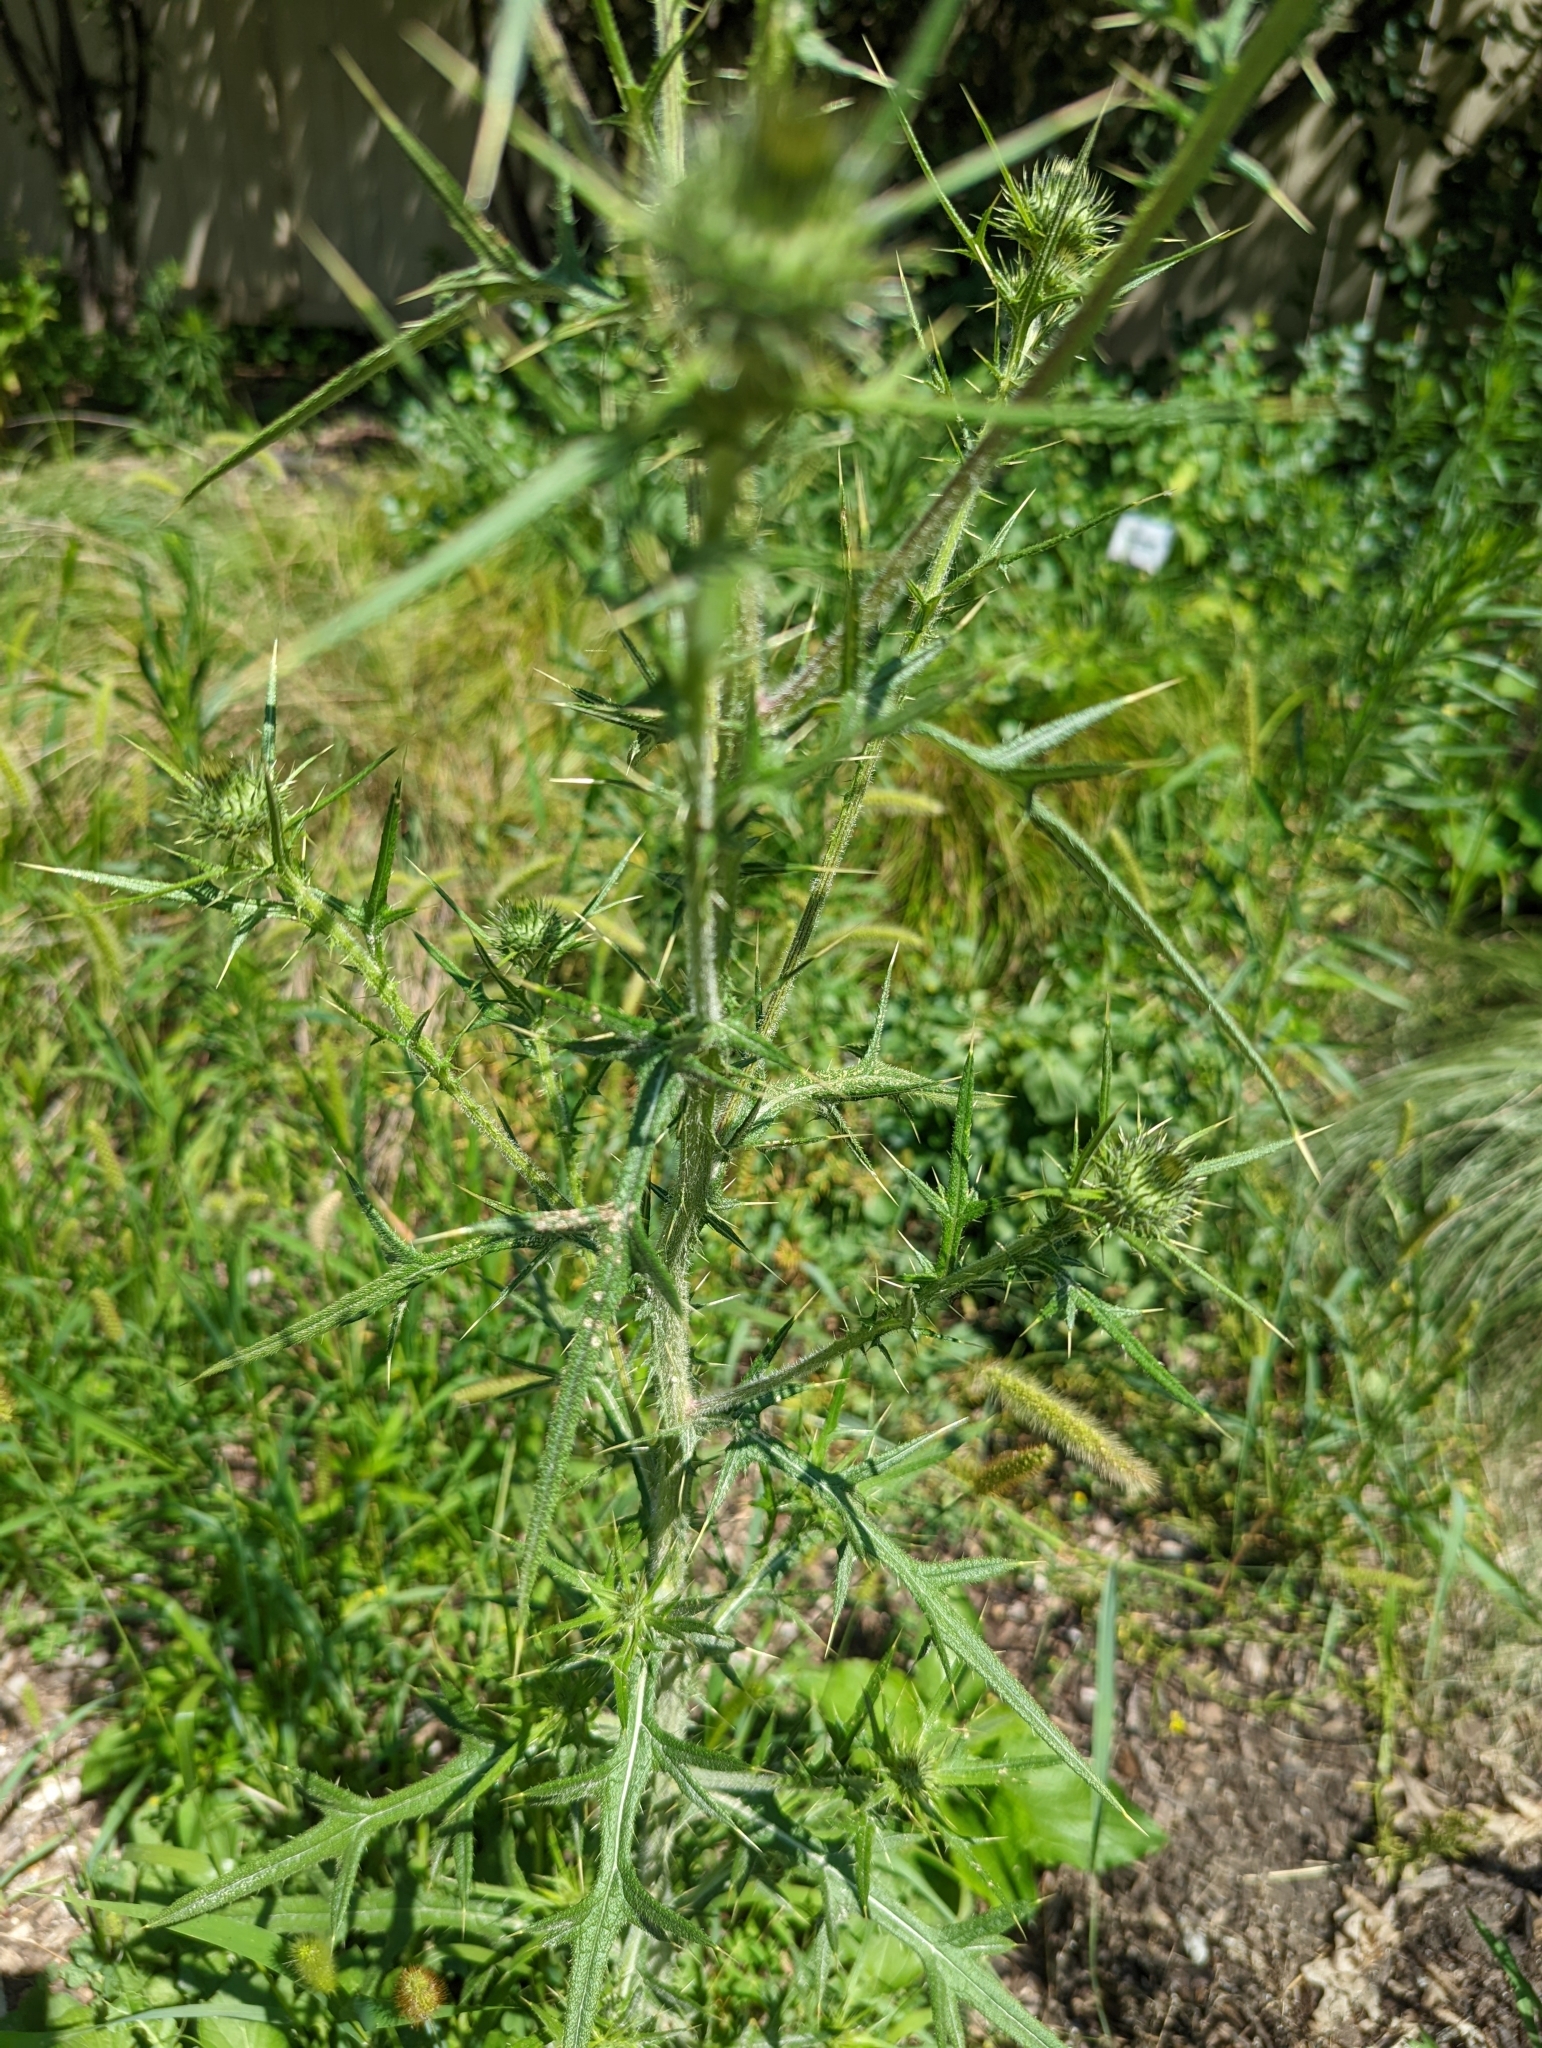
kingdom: Plantae
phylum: Tracheophyta
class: Magnoliopsida
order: Asterales
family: Asteraceae
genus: Cirsium
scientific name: Cirsium vulgare
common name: Bull thistle
